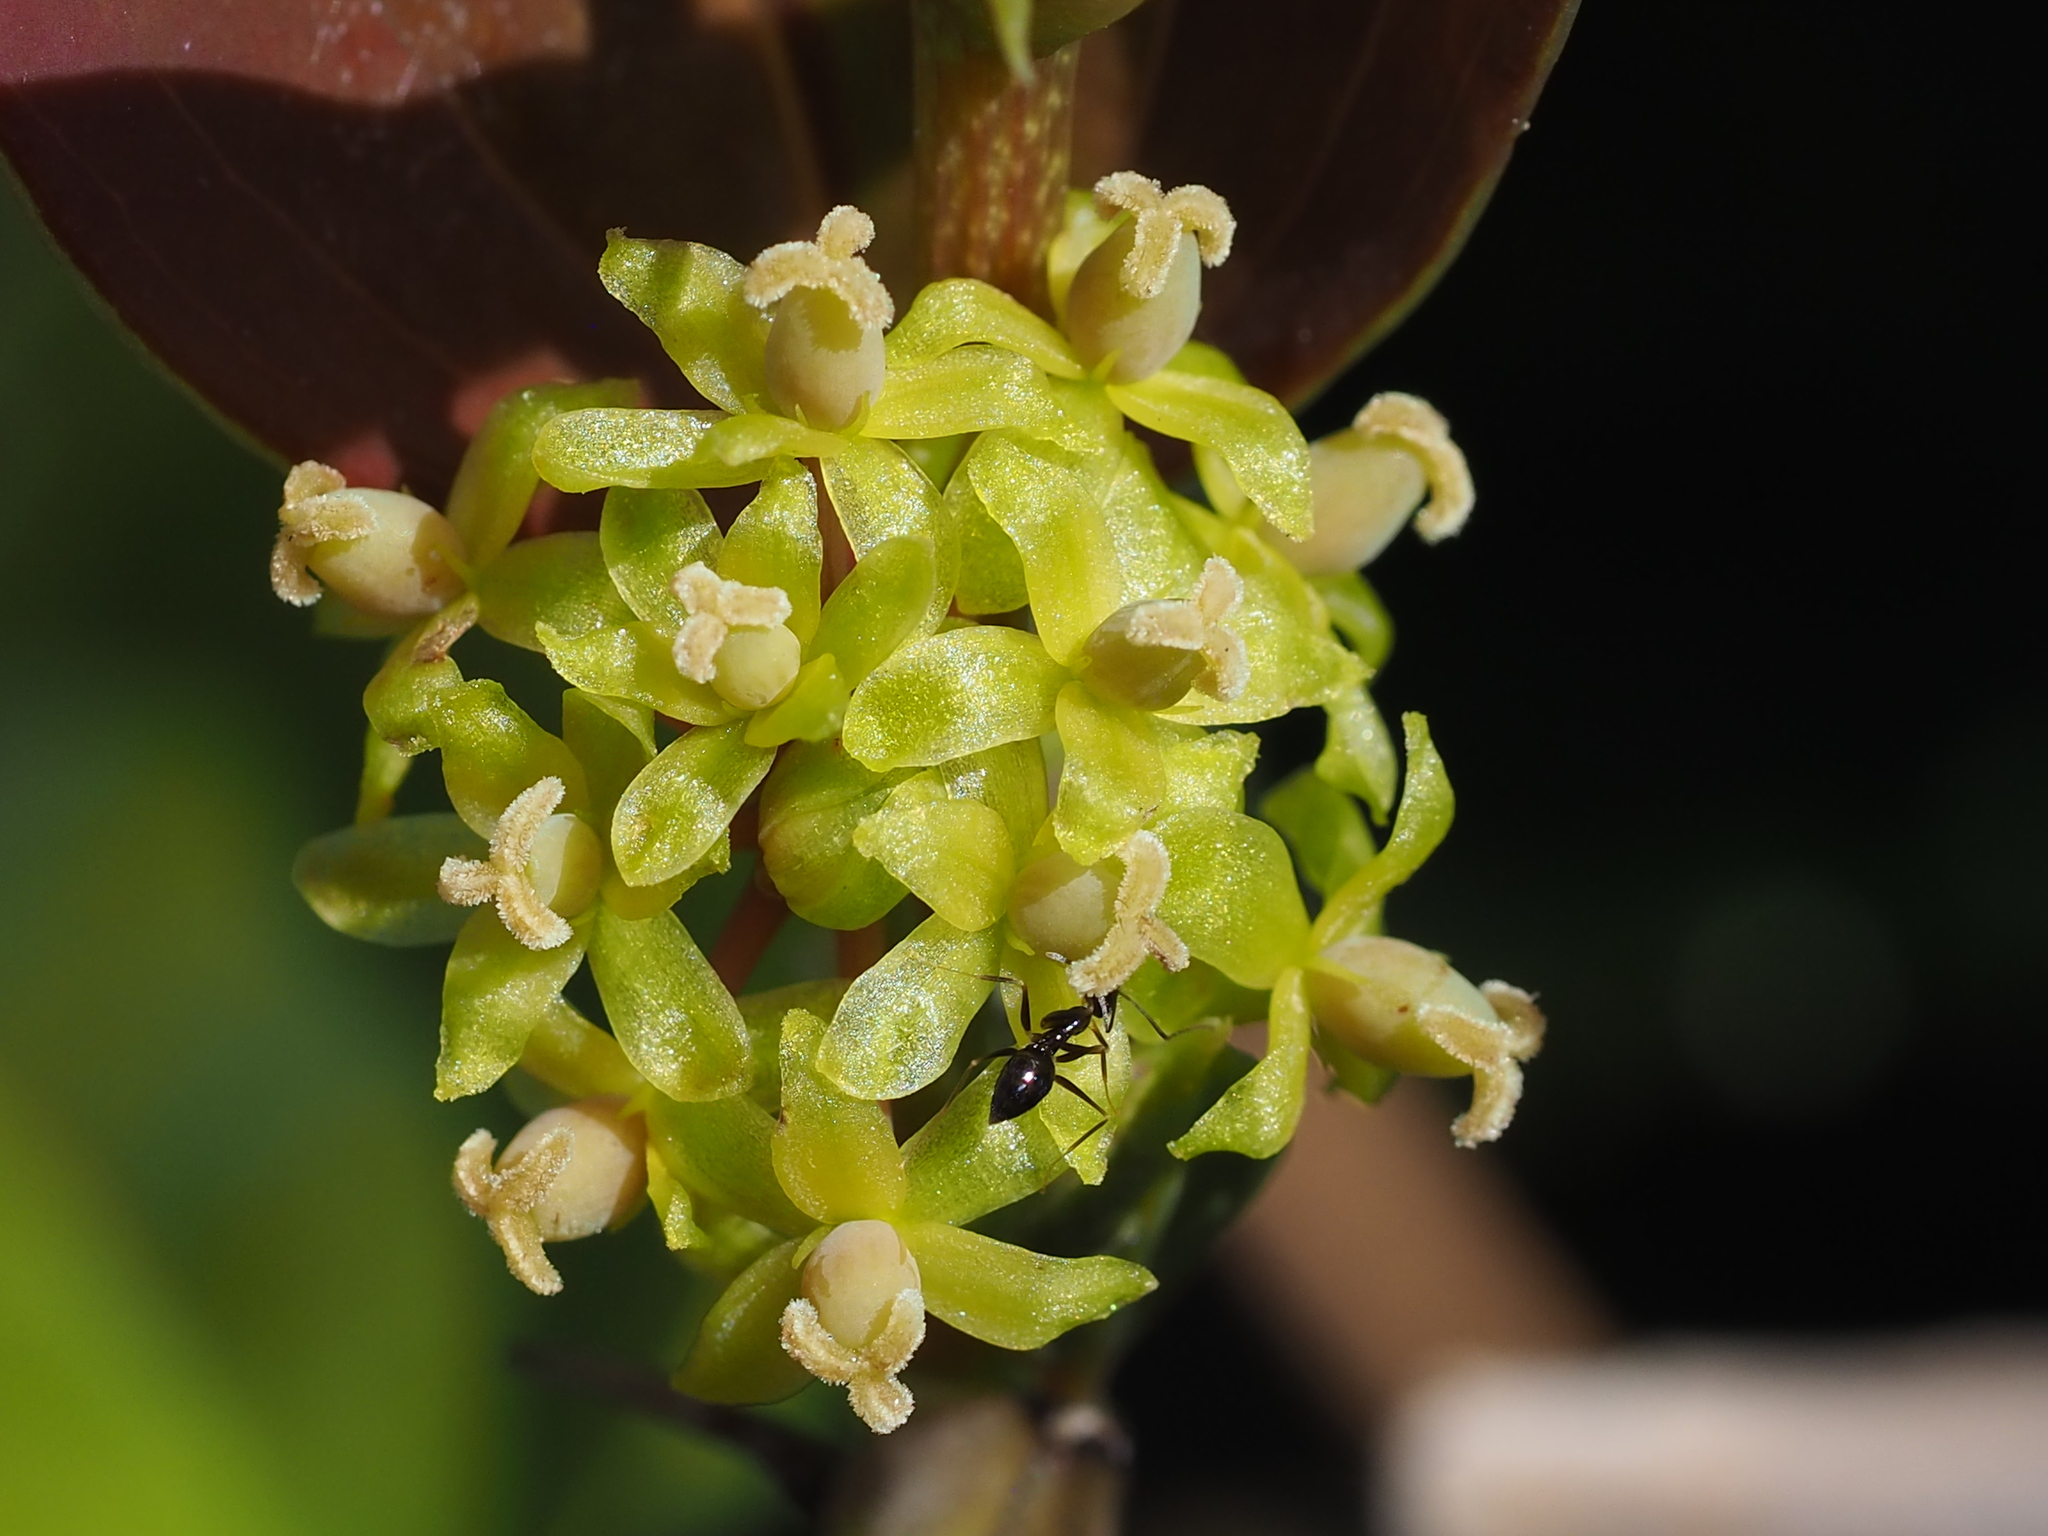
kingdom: Plantae
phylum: Tracheophyta
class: Liliopsida
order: Liliales
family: Smilacaceae
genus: Smilax
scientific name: Smilax china
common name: Chinaroot
